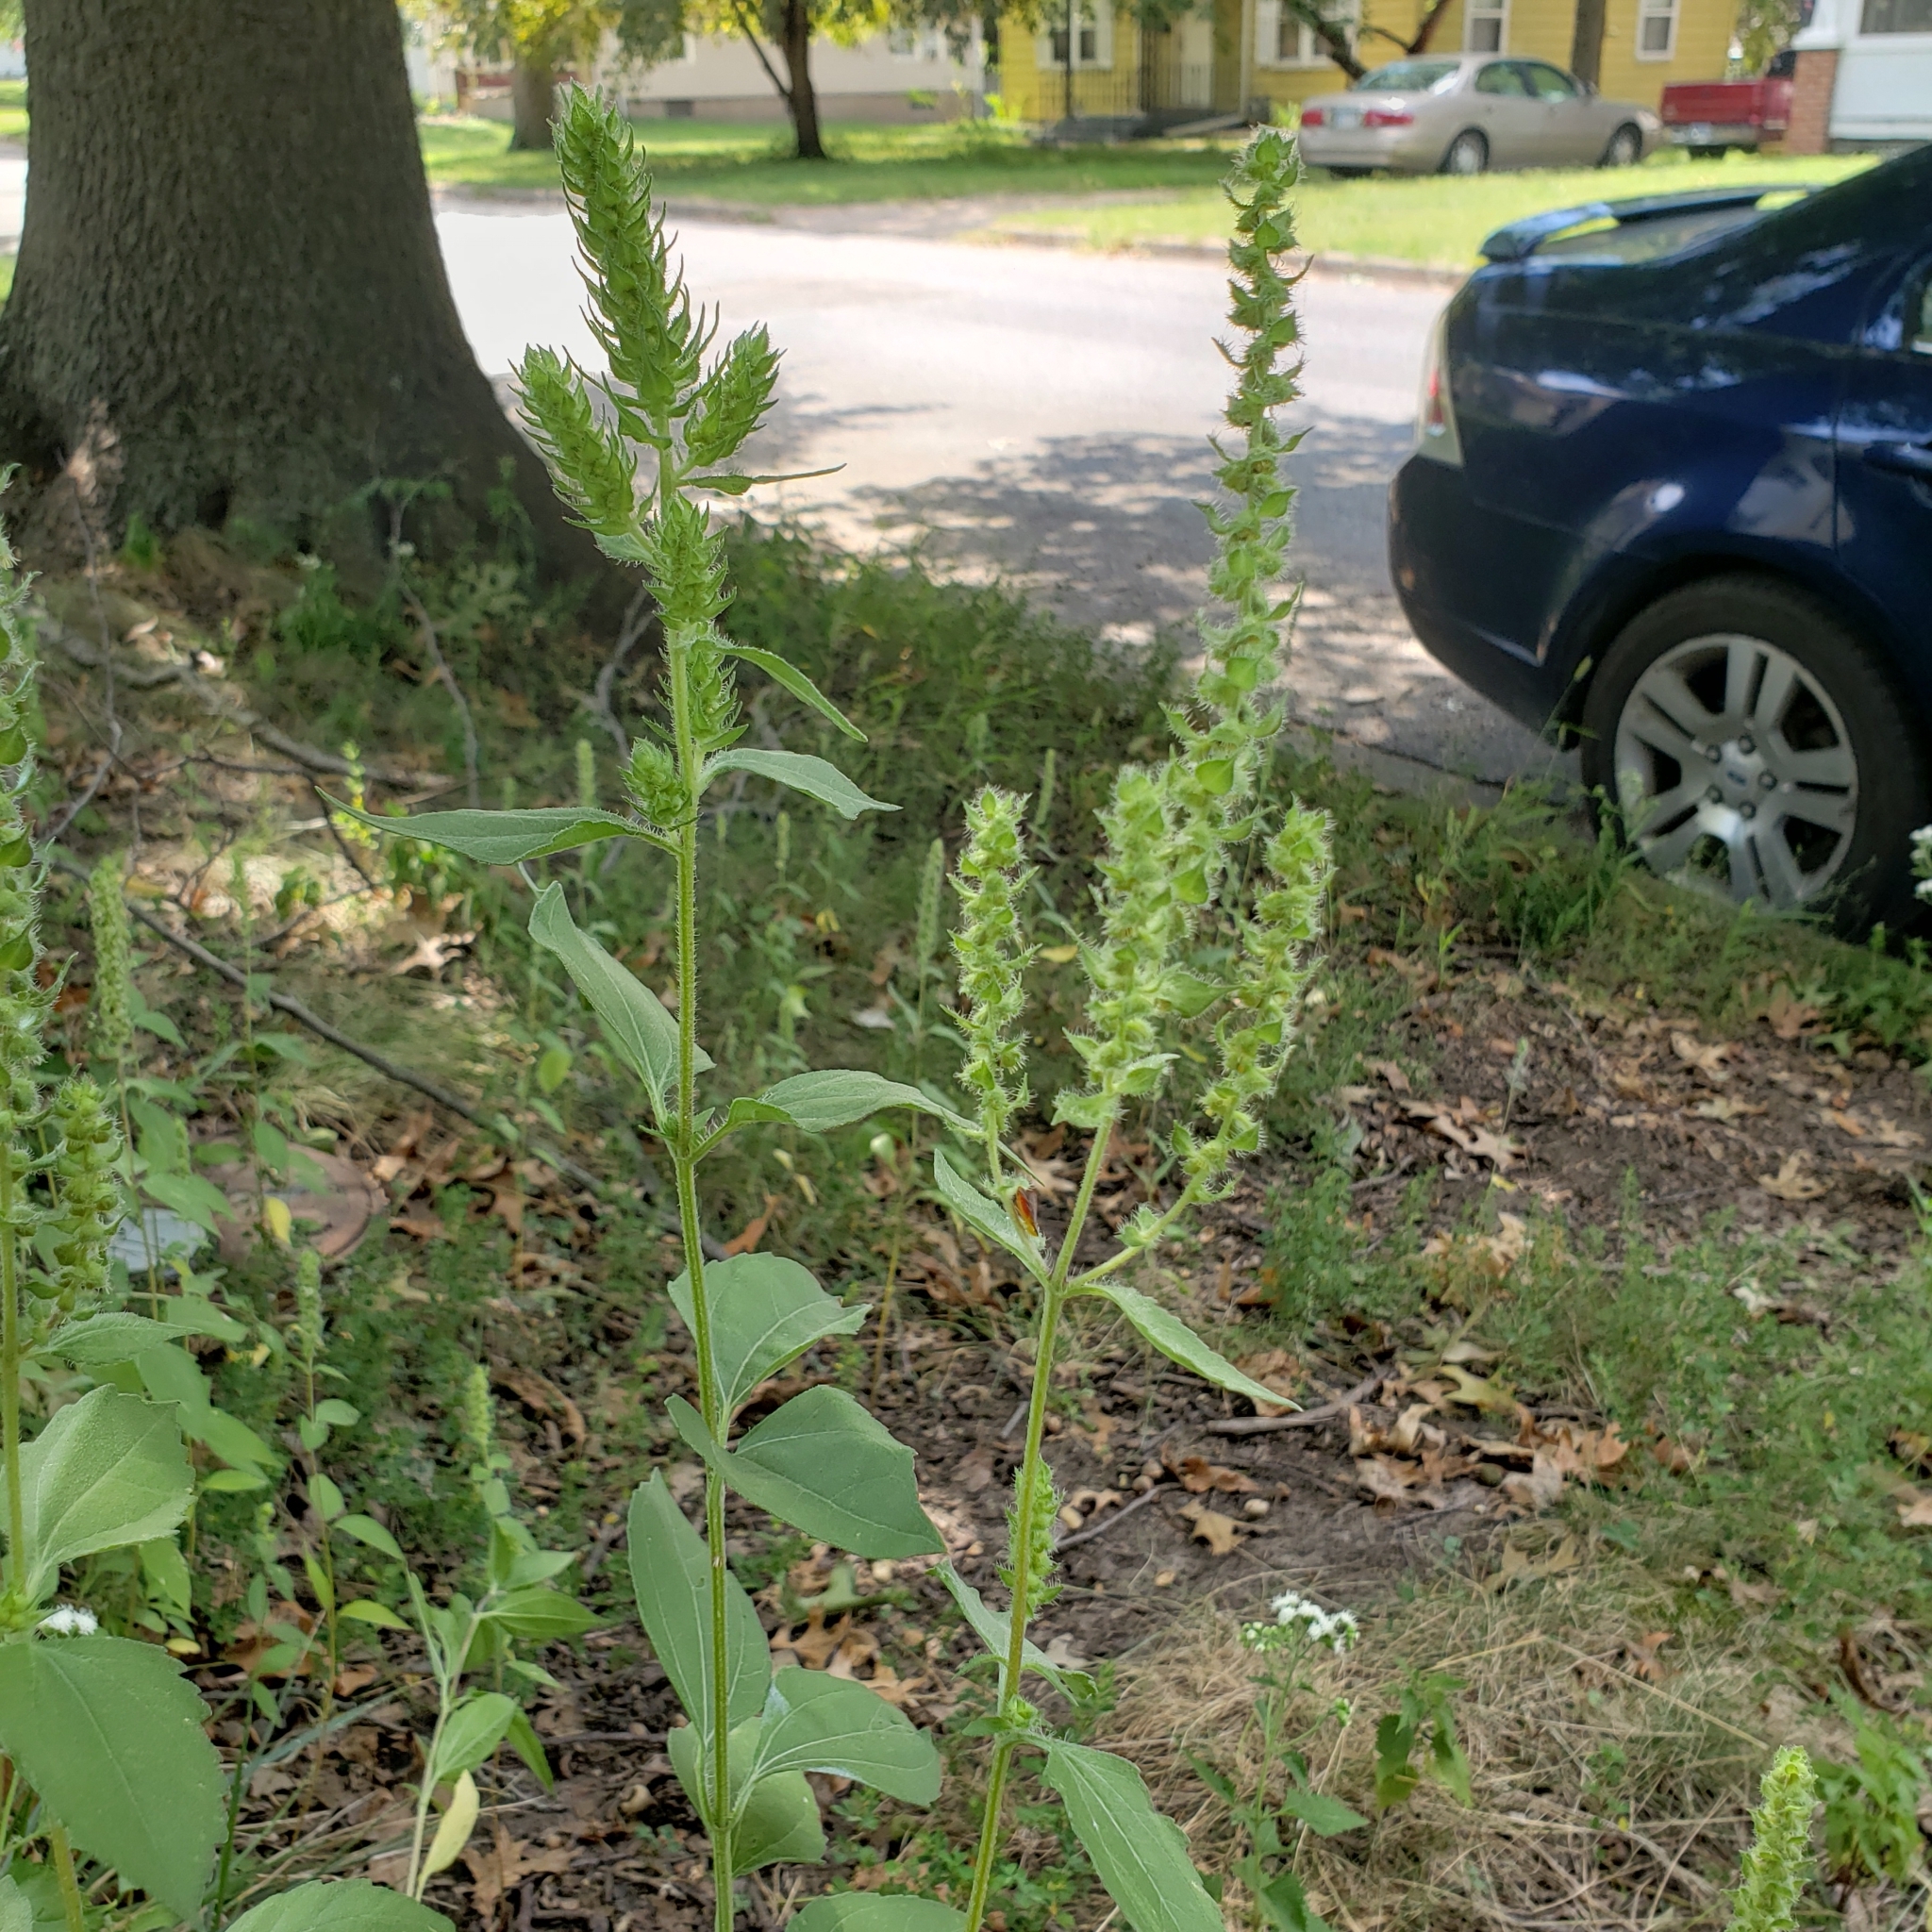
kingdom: Plantae
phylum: Tracheophyta
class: Magnoliopsida
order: Asterales
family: Asteraceae
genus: Iva
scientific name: Iva annua
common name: Marsh-elder
